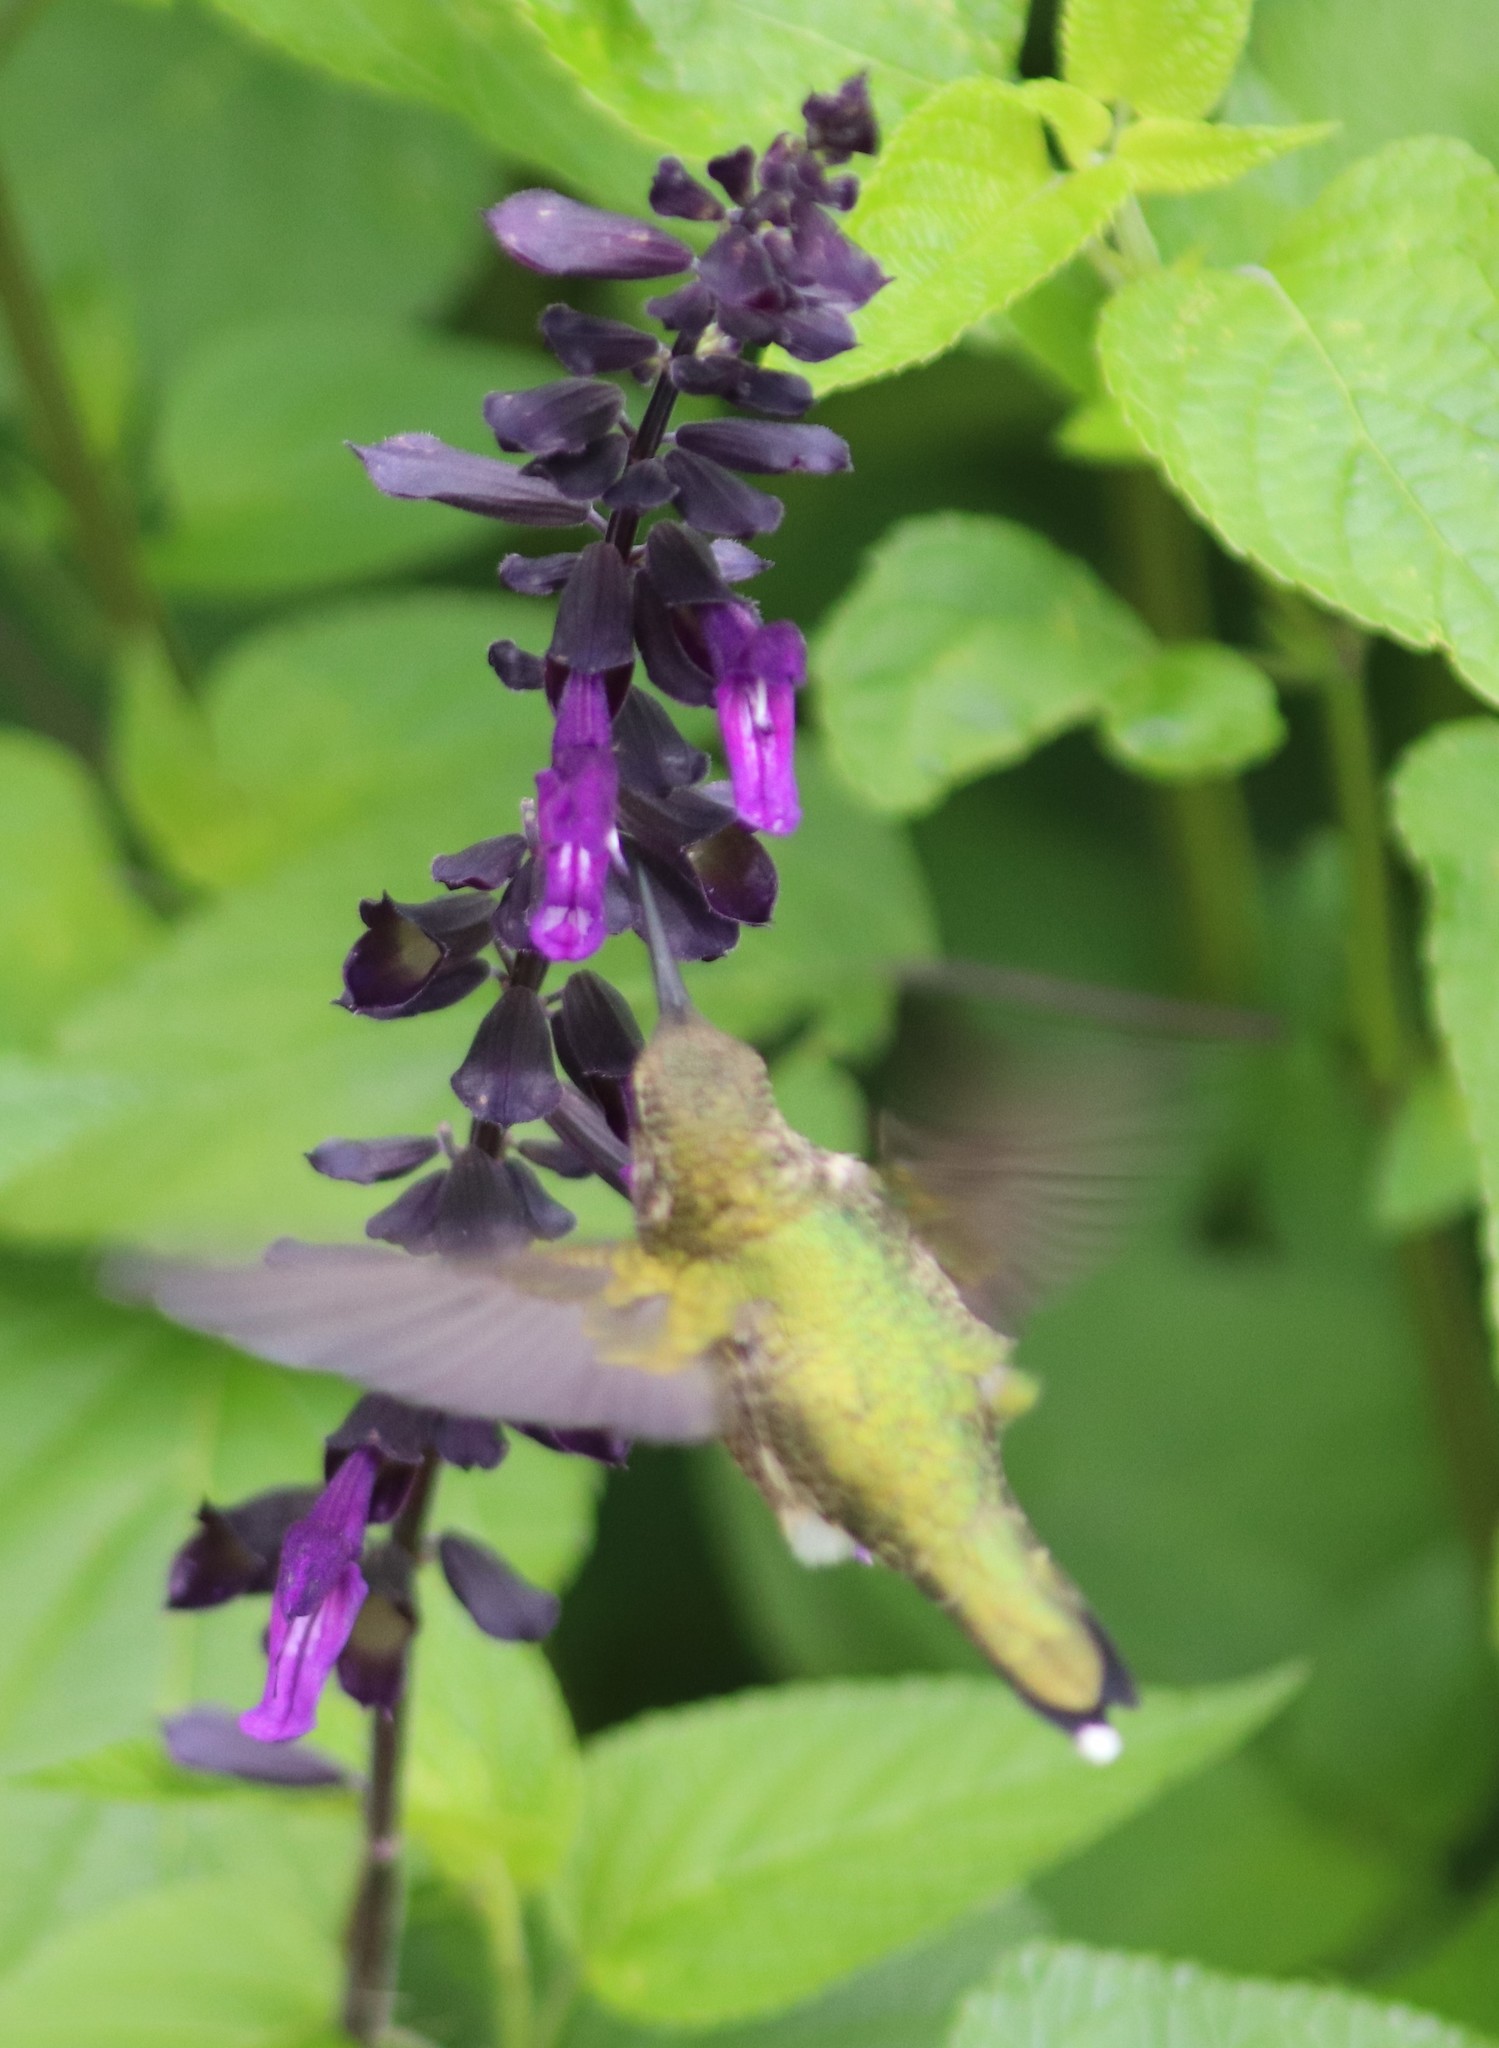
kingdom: Animalia
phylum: Chordata
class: Aves
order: Apodiformes
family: Trochilidae
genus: Archilochus
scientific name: Archilochus colubris
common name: Ruby-throated hummingbird
